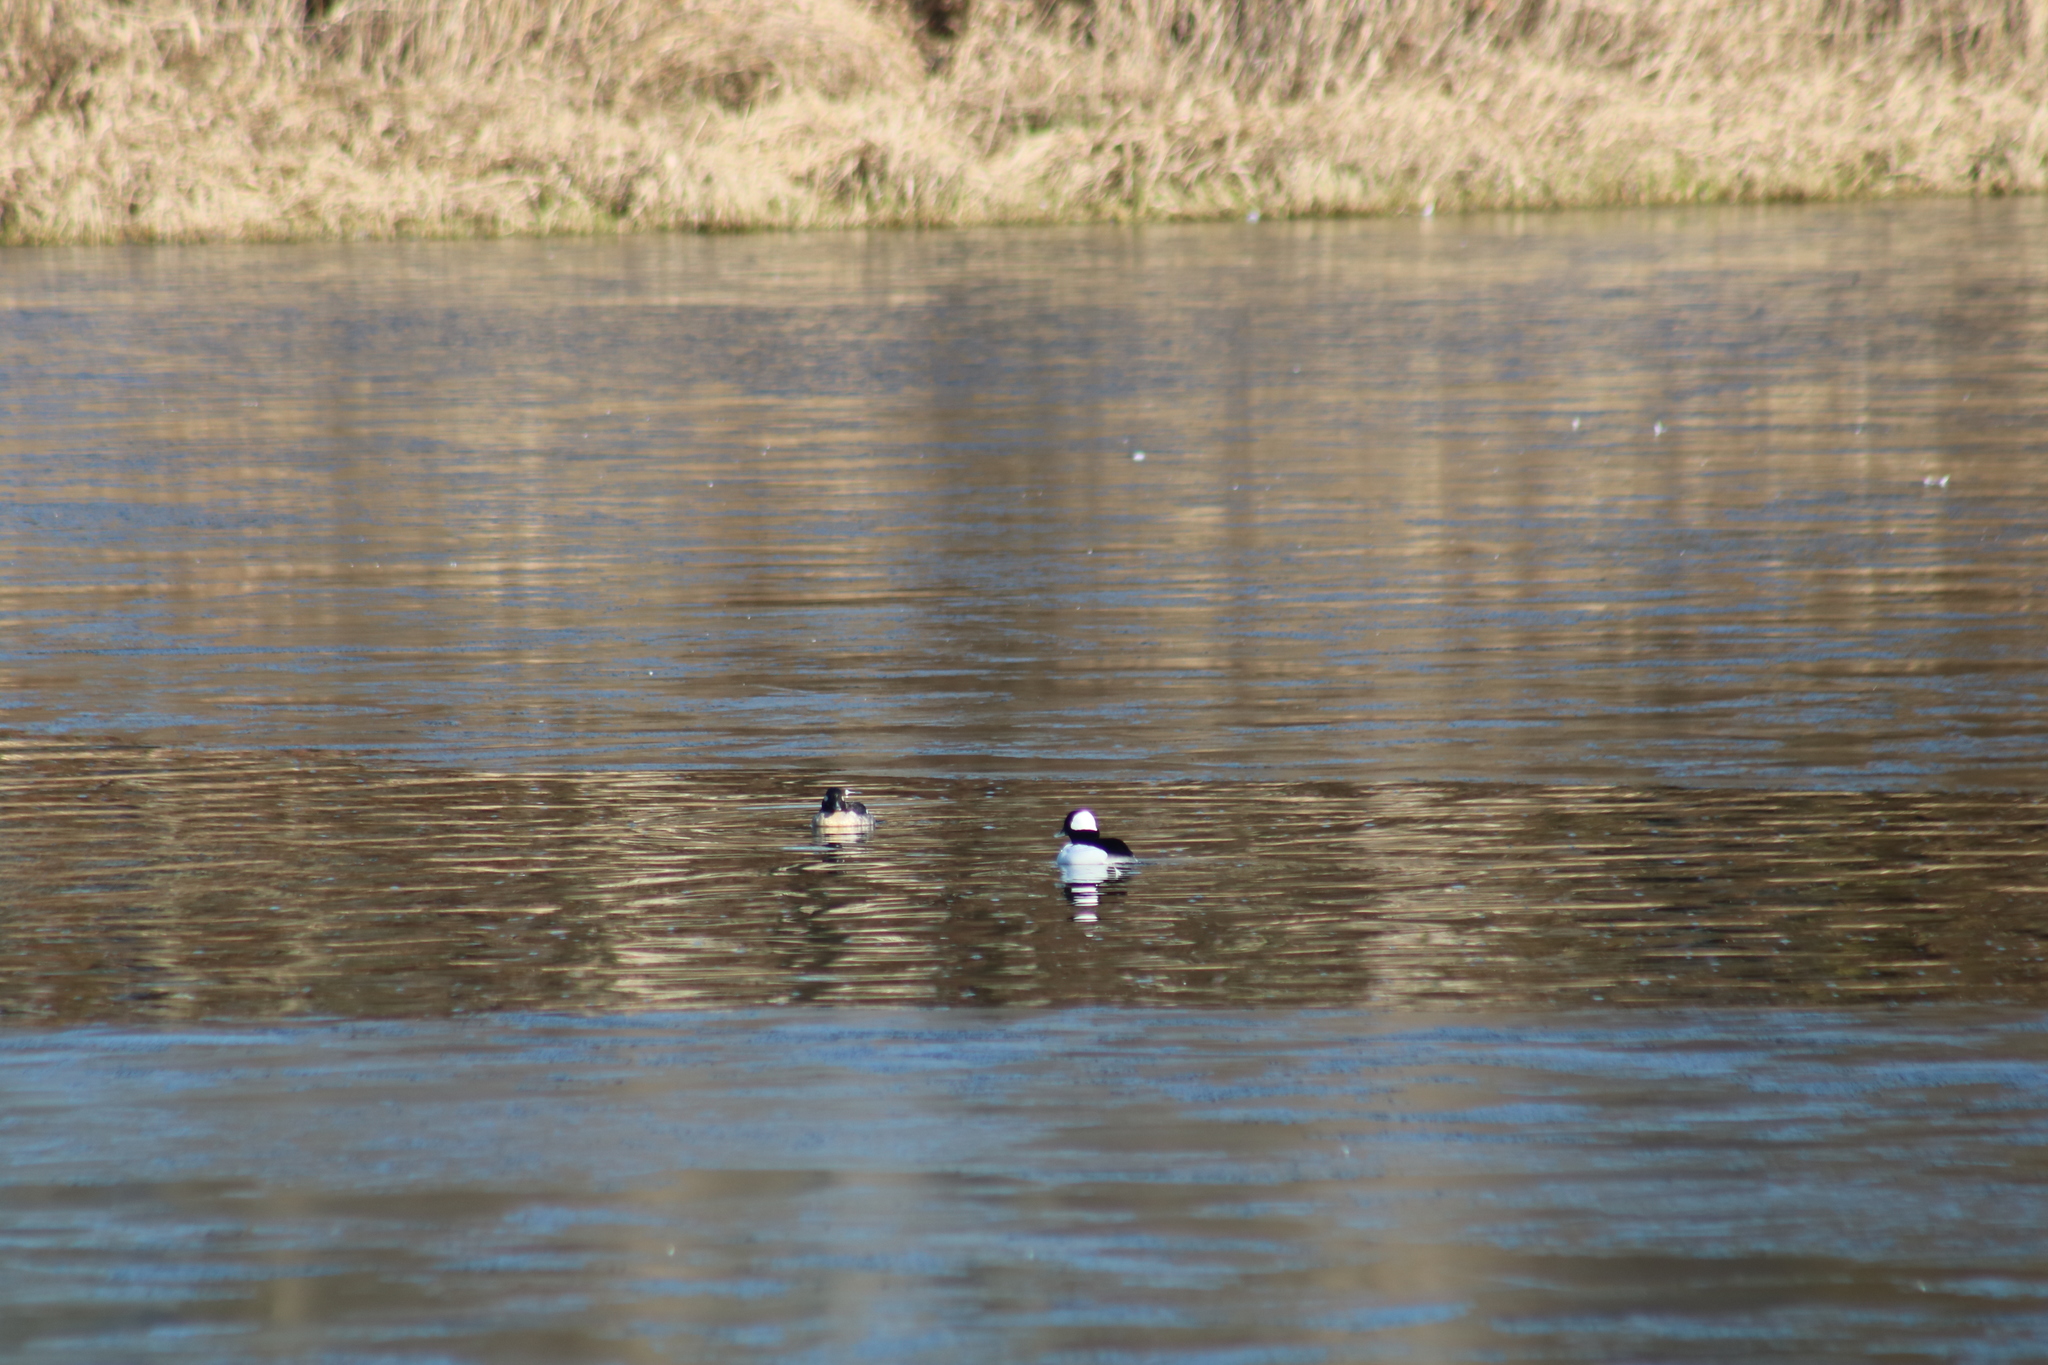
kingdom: Animalia
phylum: Chordata
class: Aves
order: Anseriformes
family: Anatidae
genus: Bucephala
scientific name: Bucephala albeola
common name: Bufflehead
